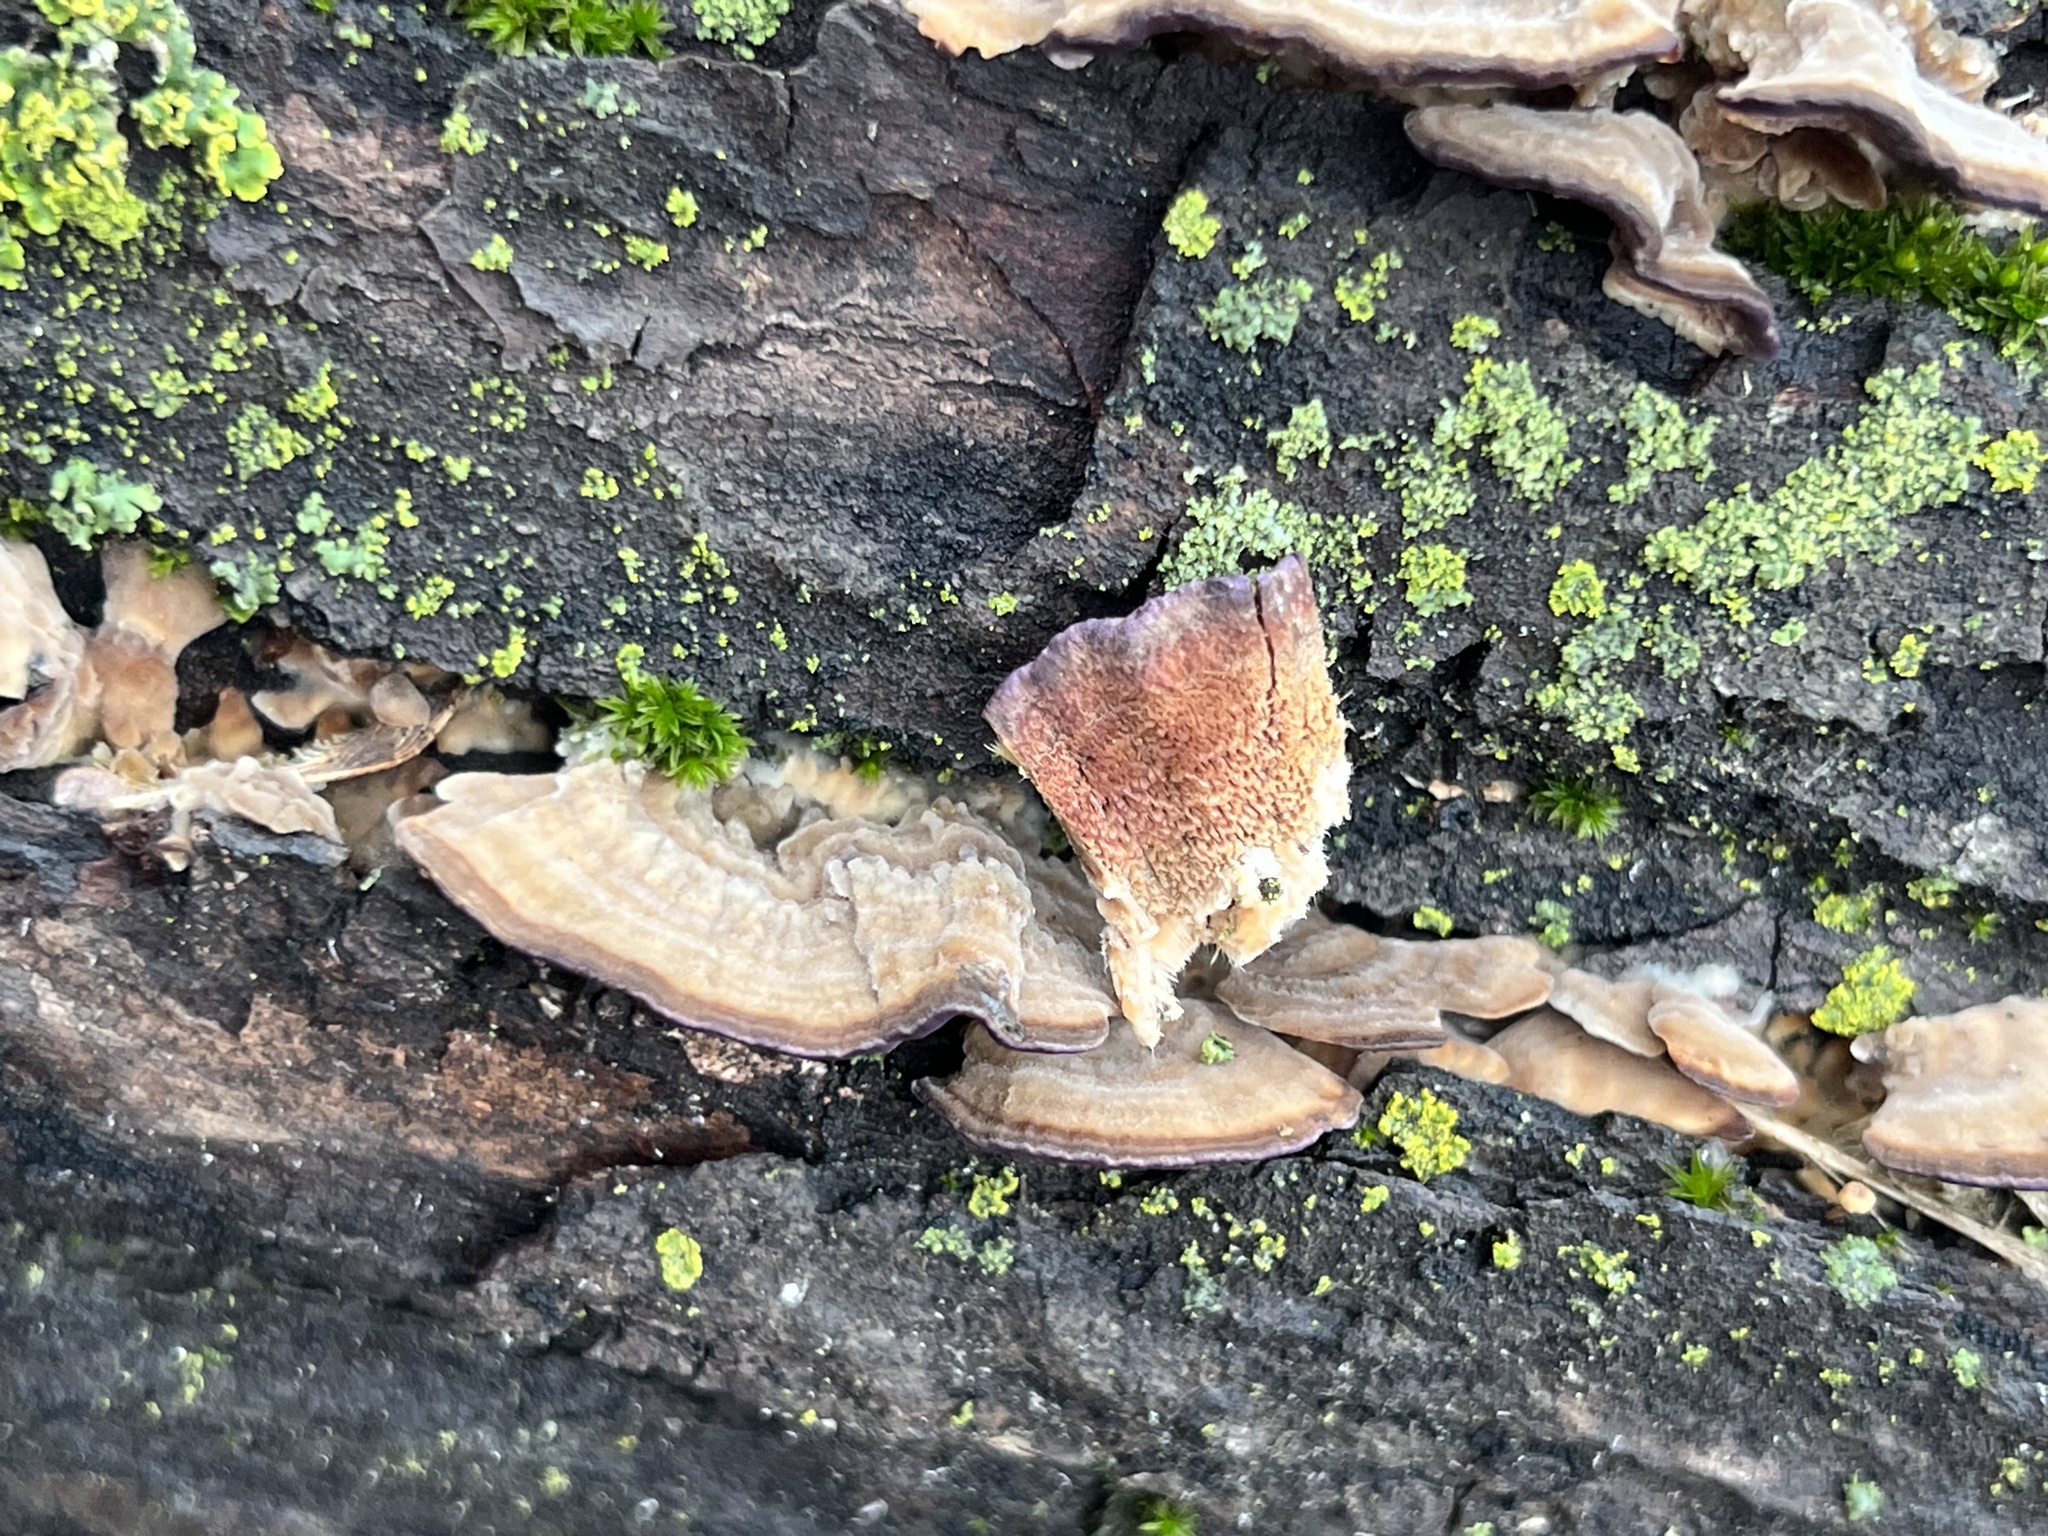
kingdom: Fungi
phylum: Basidiomycota
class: Agaricomycetes
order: Hymenochaetales
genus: Trichaptum
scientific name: Trichaptum biforme
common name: Violet-toothed polypore
